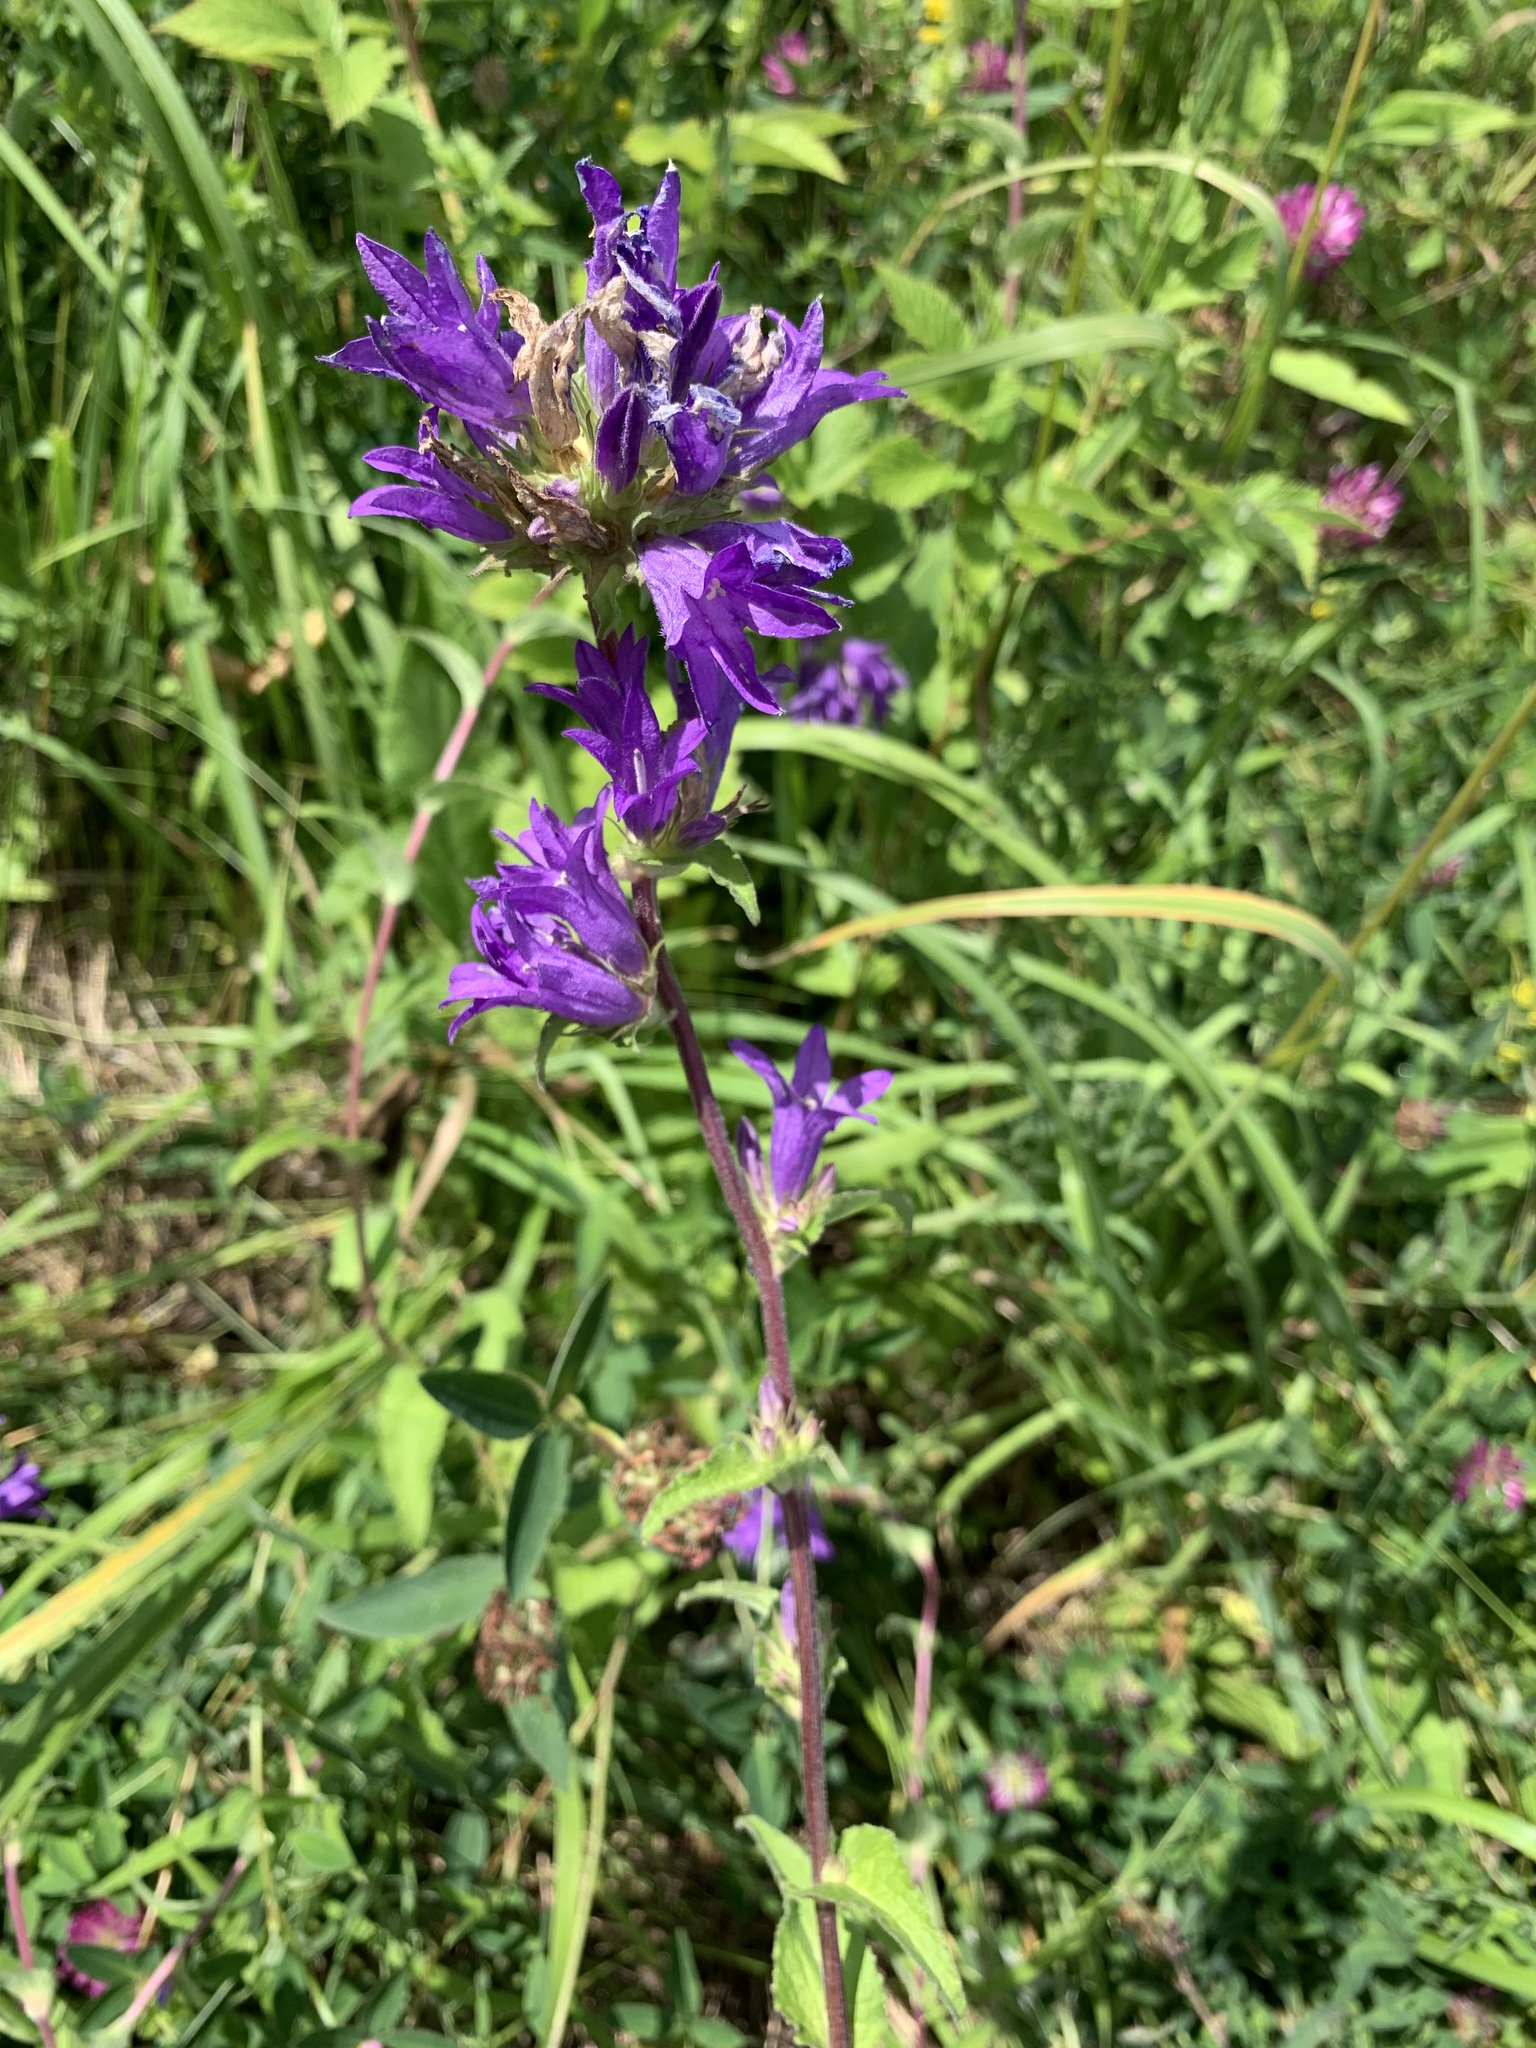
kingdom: Plantae
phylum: Tracheophyta
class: Magnoliopsida
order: Asterales
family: Campanulaceae
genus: Campanula
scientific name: Campanula glomerata
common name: Clustered bellflower
